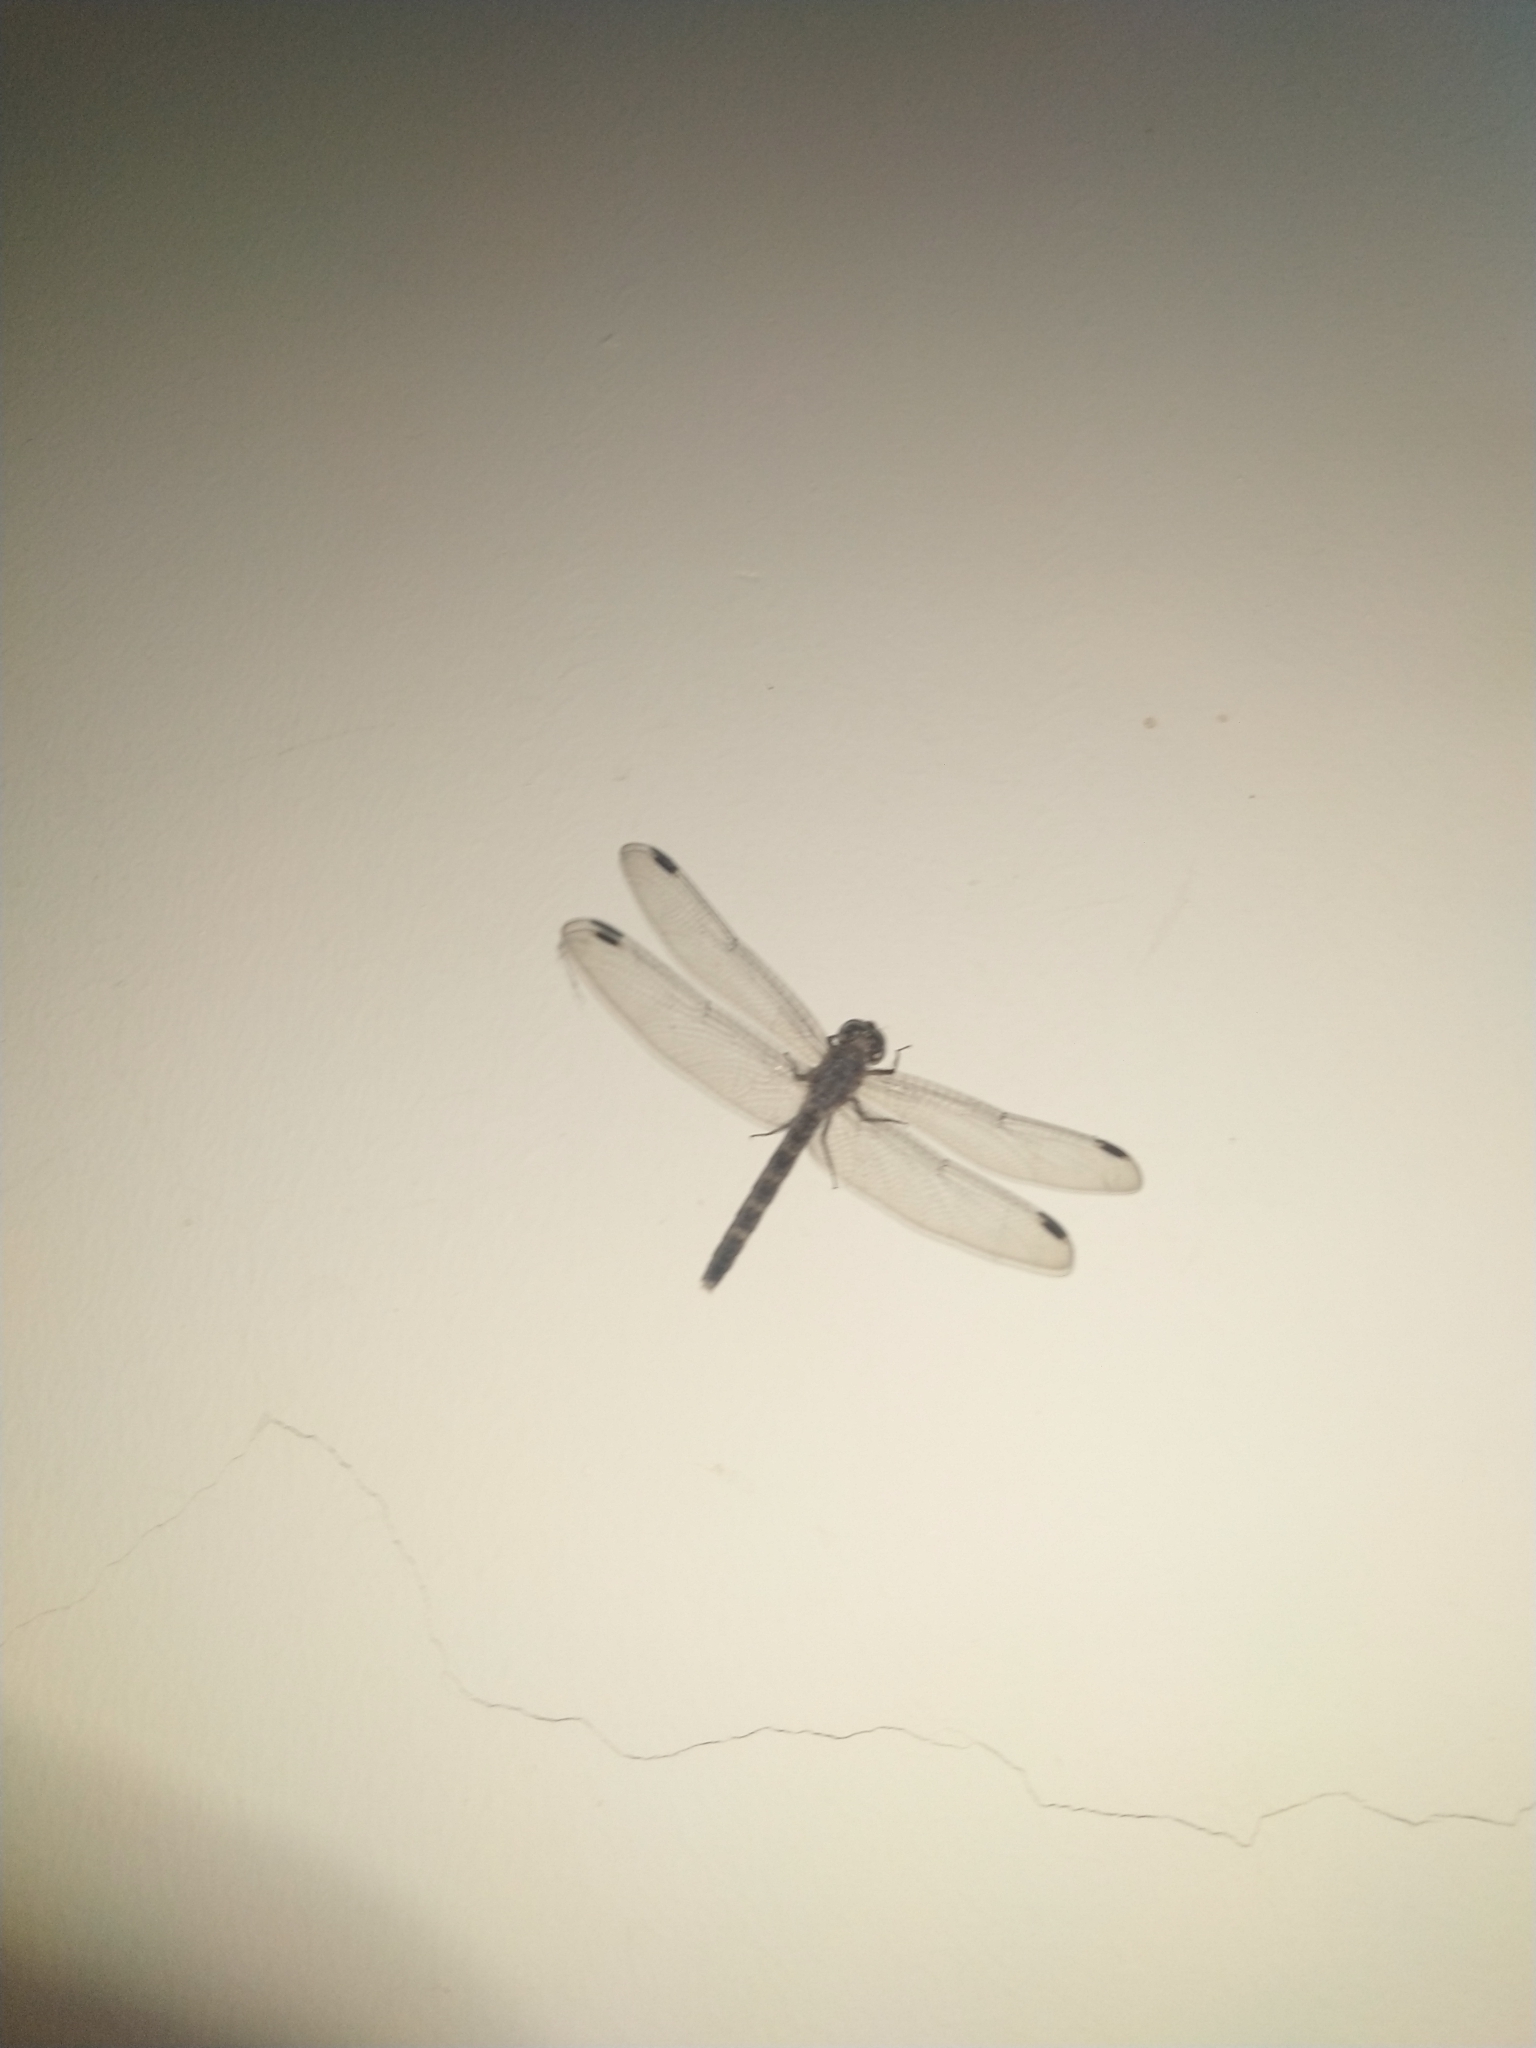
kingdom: Animalia
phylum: Arthropoda
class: Insecta
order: Odonata
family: Libellulidae
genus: Bradinopyga
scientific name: Bradinopyga geminata
